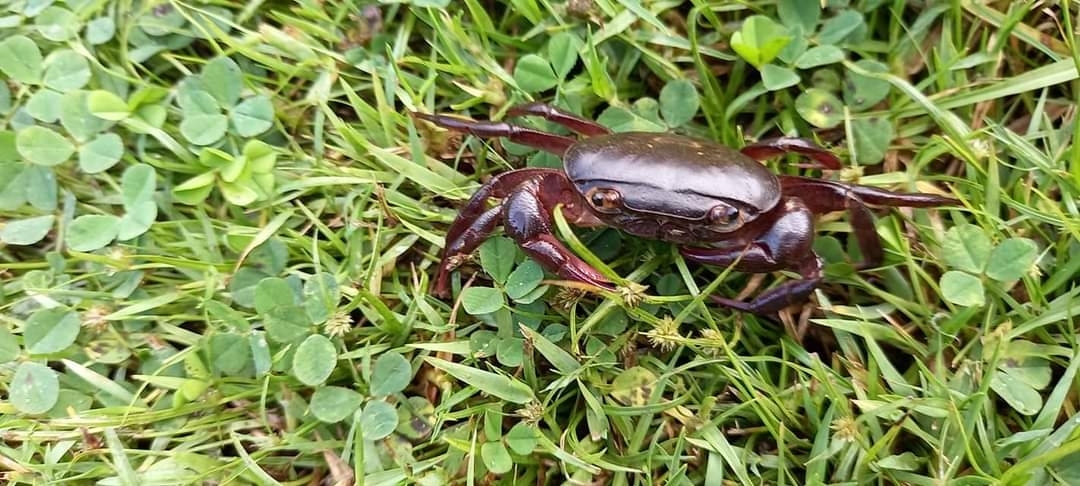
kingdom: Animalia
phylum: Arthropoda
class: Malacostraca
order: Decapoda
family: Potamonautidae
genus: Potamonautes
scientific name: Potamonautes brincki
